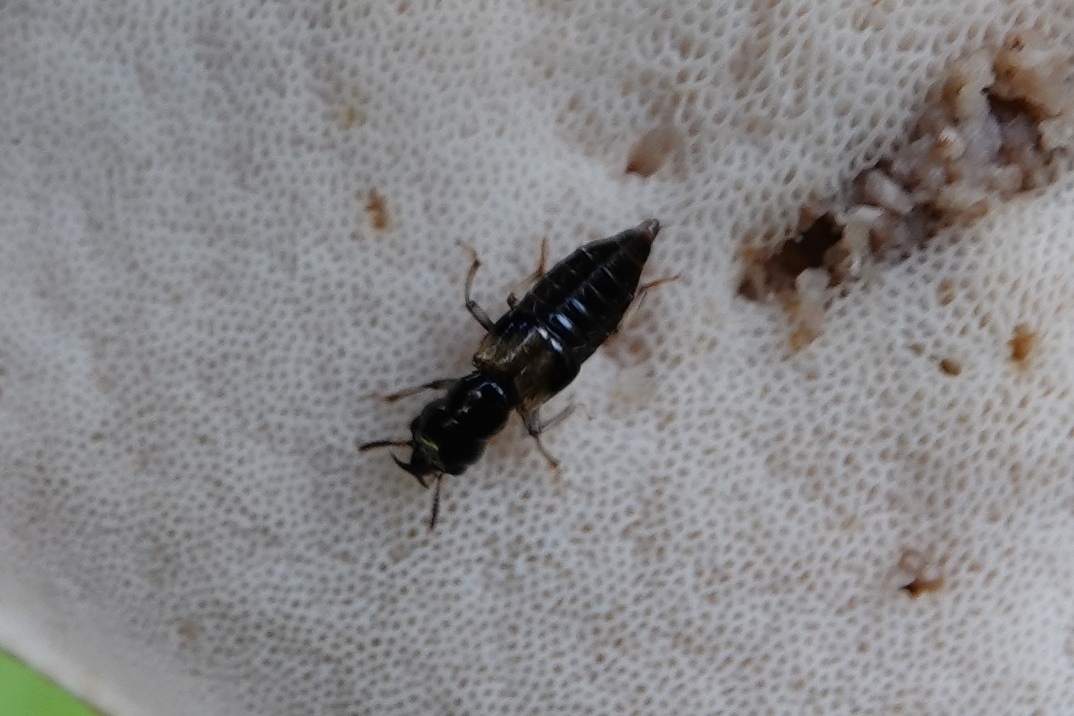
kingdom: Animalia
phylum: Arthropoda
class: Insecta
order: Coleoptera
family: Staphylinidae
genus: Oxyporus
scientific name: Oxyporus maxillosus
